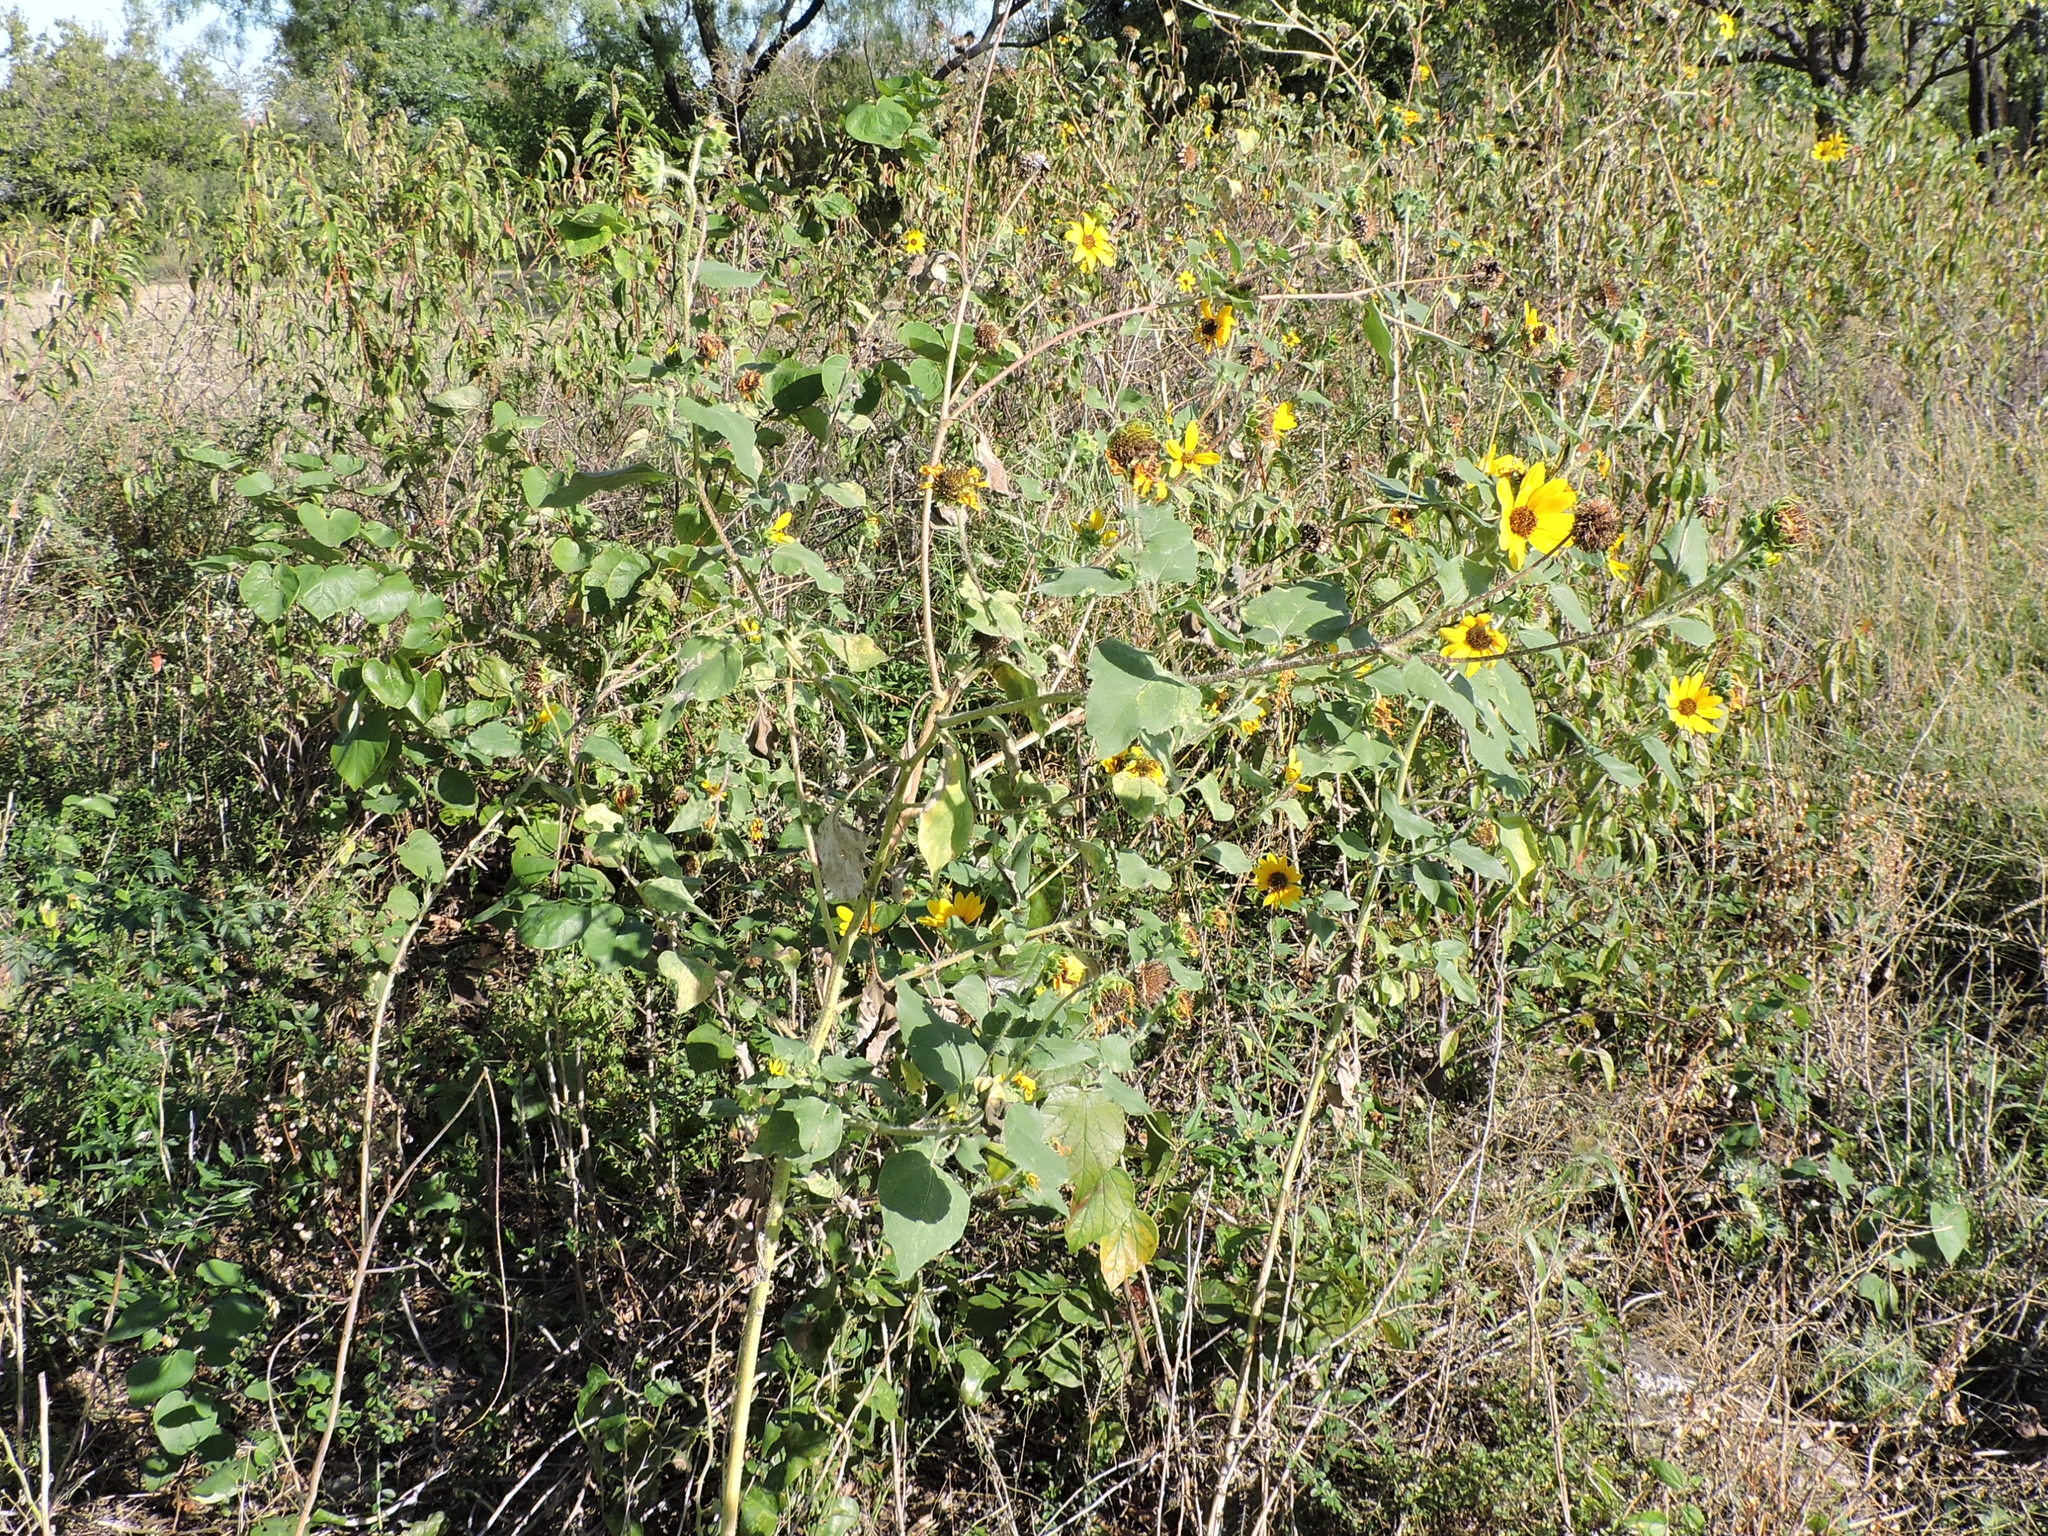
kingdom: Plantae
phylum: Tracheophyta
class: Magnoliopsida
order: Asterales
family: Asteraceae
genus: Helianthus
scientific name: Helianthus annuus
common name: Sunflower
